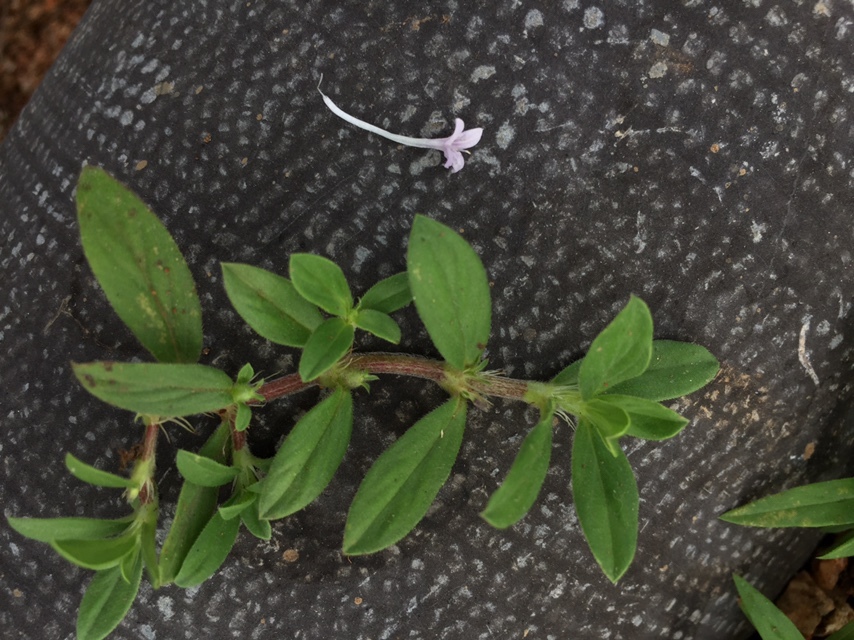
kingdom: Plantae
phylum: Tracheophyta
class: Magnoliopsida
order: Gentianales
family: Rubiaceae
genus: Spermacoce
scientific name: Spermacoce articularis
